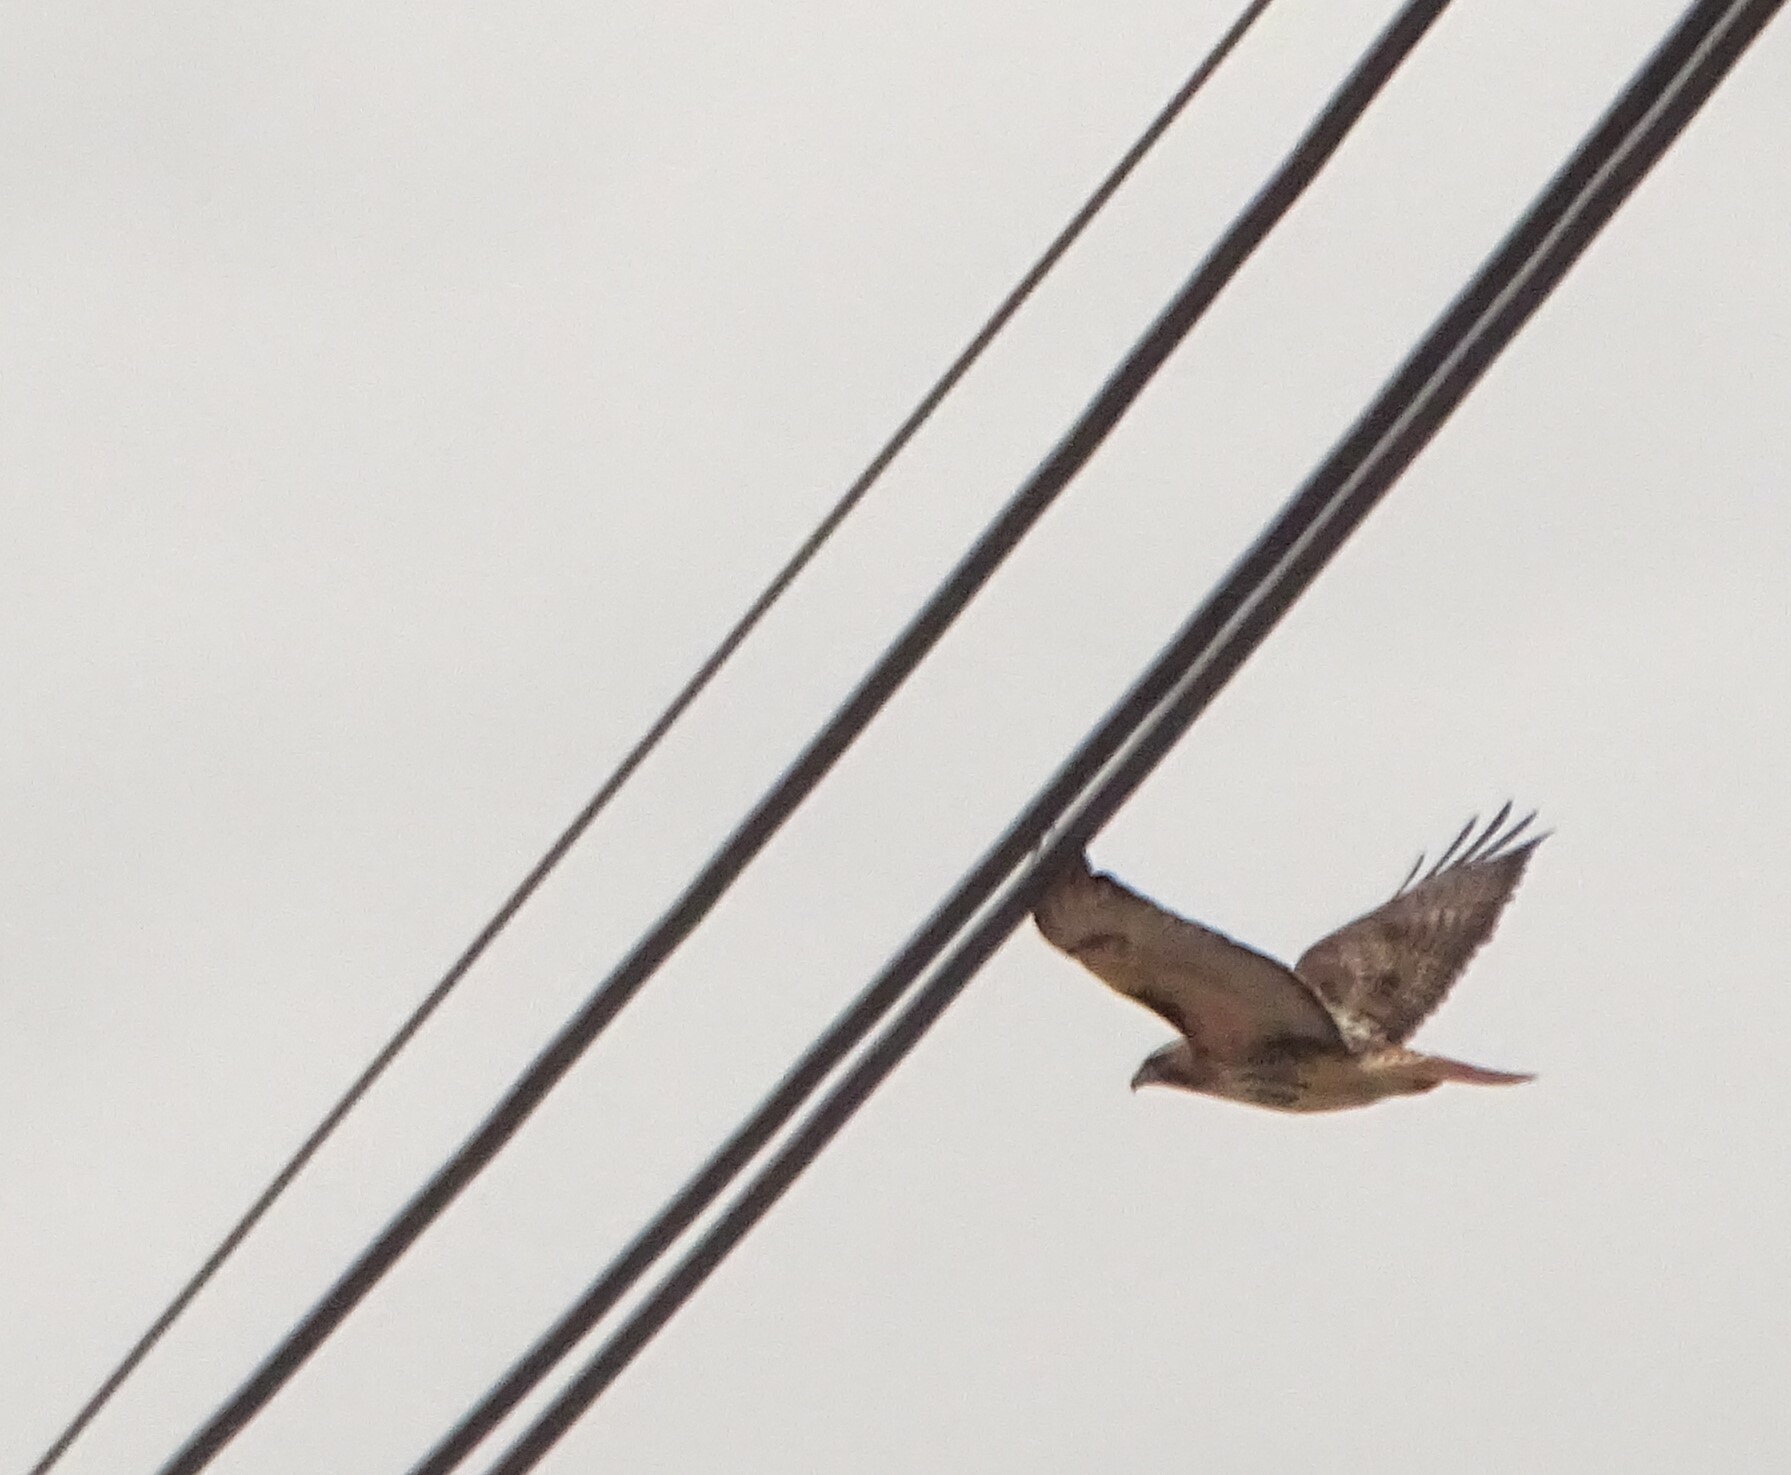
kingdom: Animalia
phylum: Chordata
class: Aves
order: Accipitriformes
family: Accipitridae
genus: Buteo
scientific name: Buteo jamaicensis
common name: Red-tailed hawk
